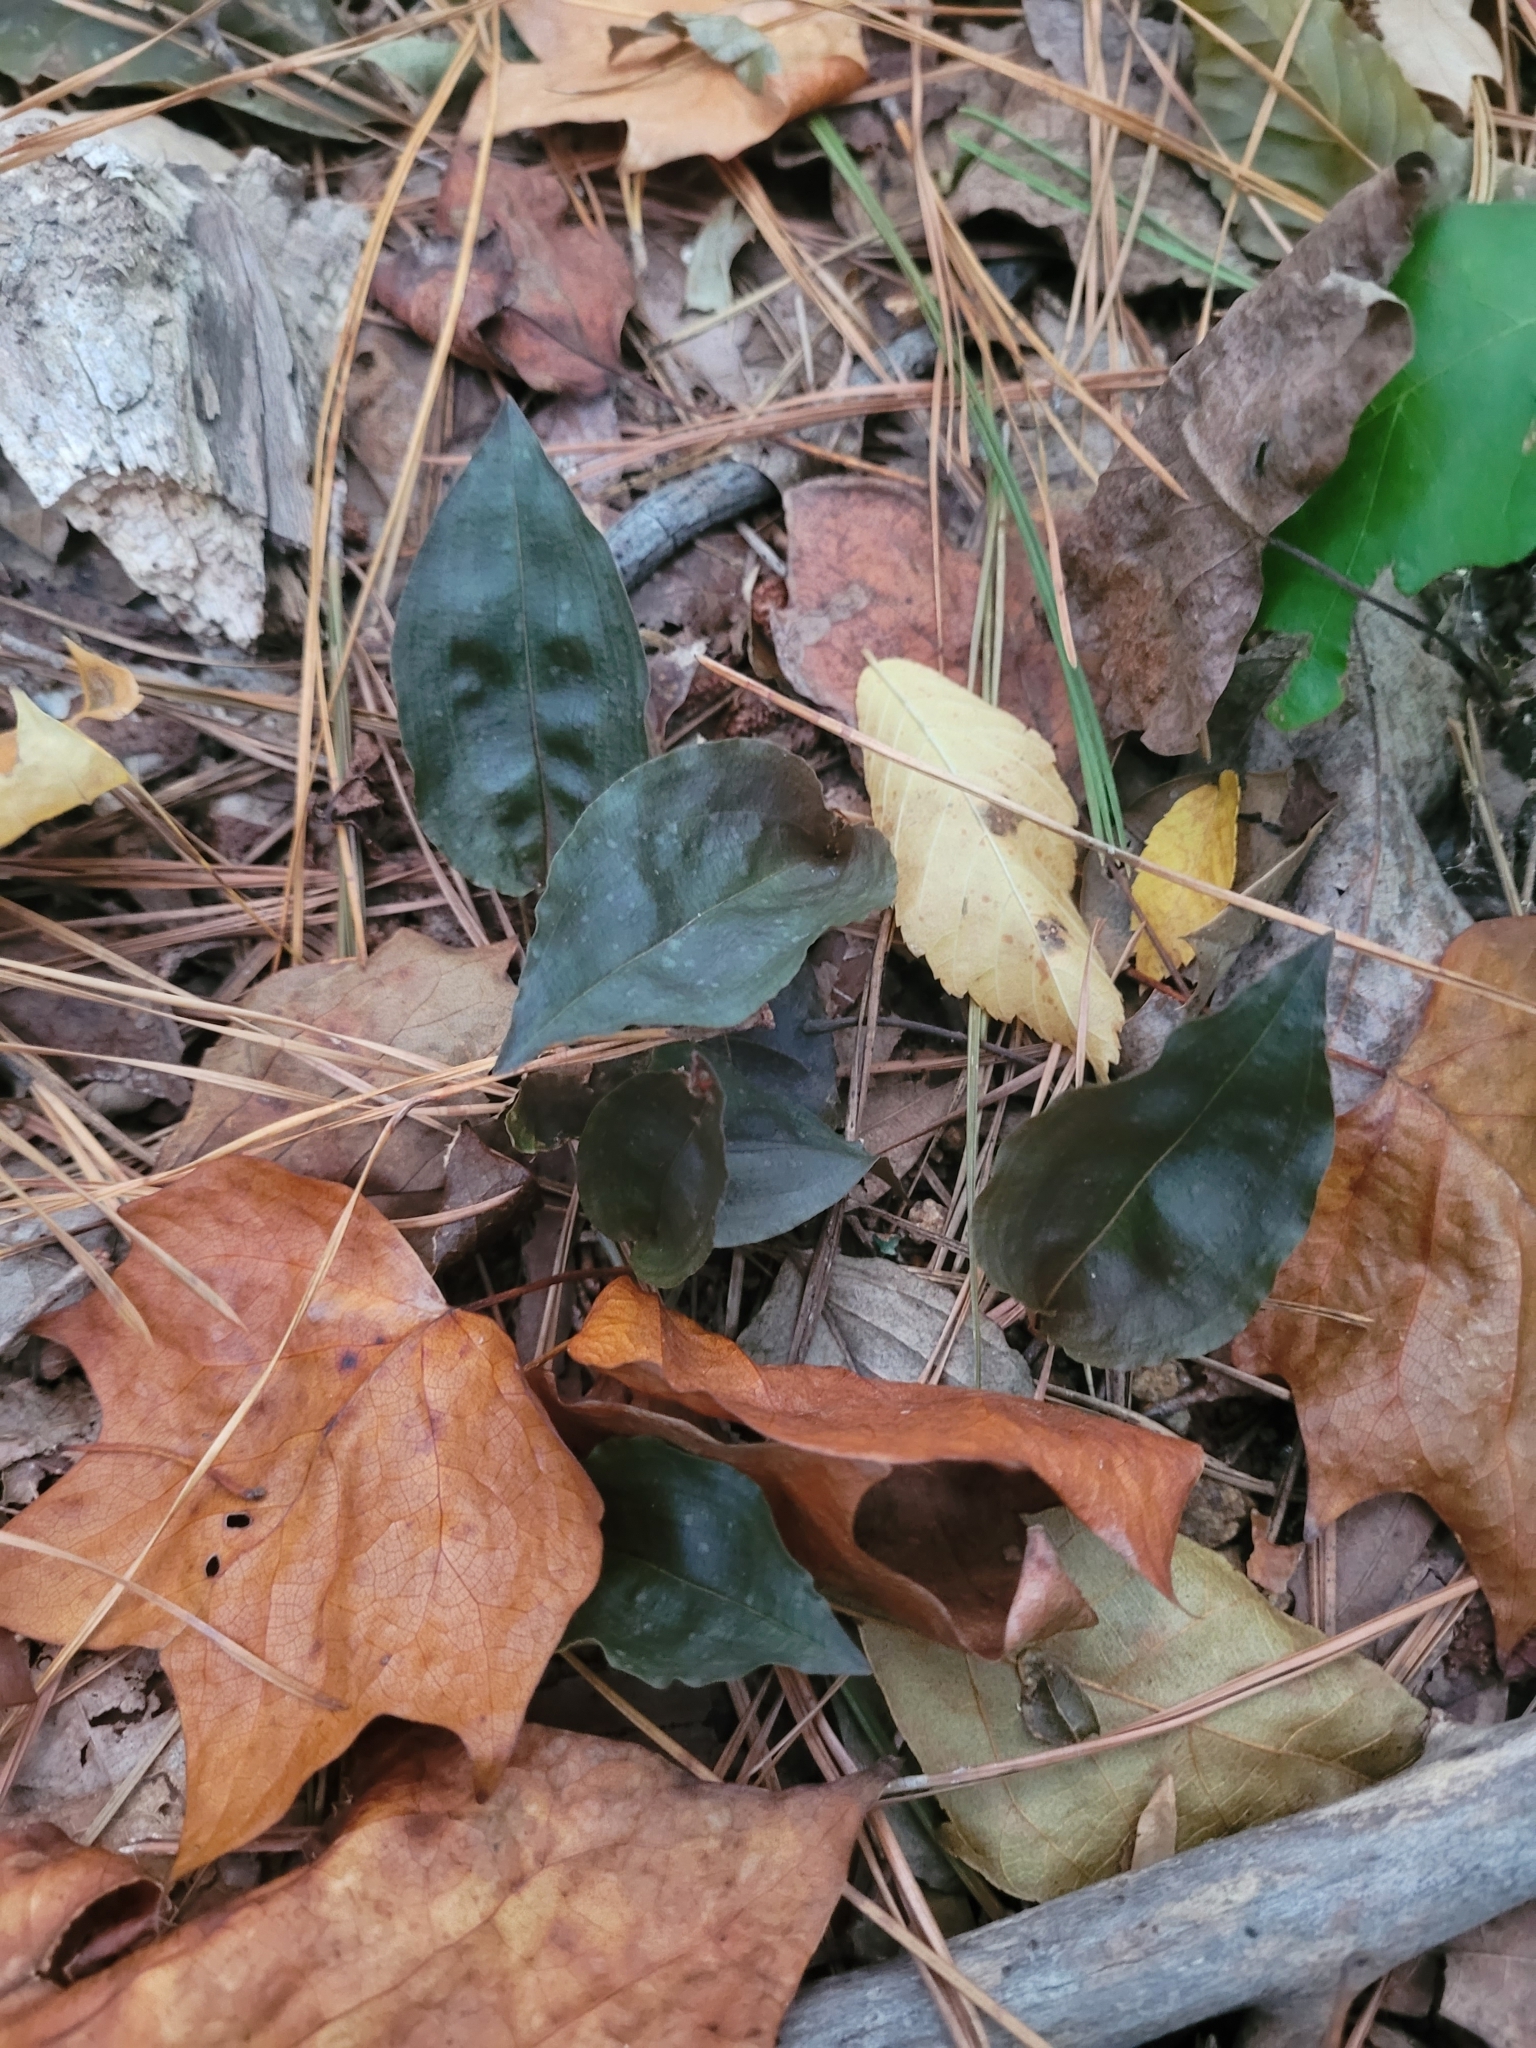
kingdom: Plantae
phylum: Tracheophyta
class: Liliopsida
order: Asparagales
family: Orchidaceae
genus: Tipularia
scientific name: Tipularia discolor
